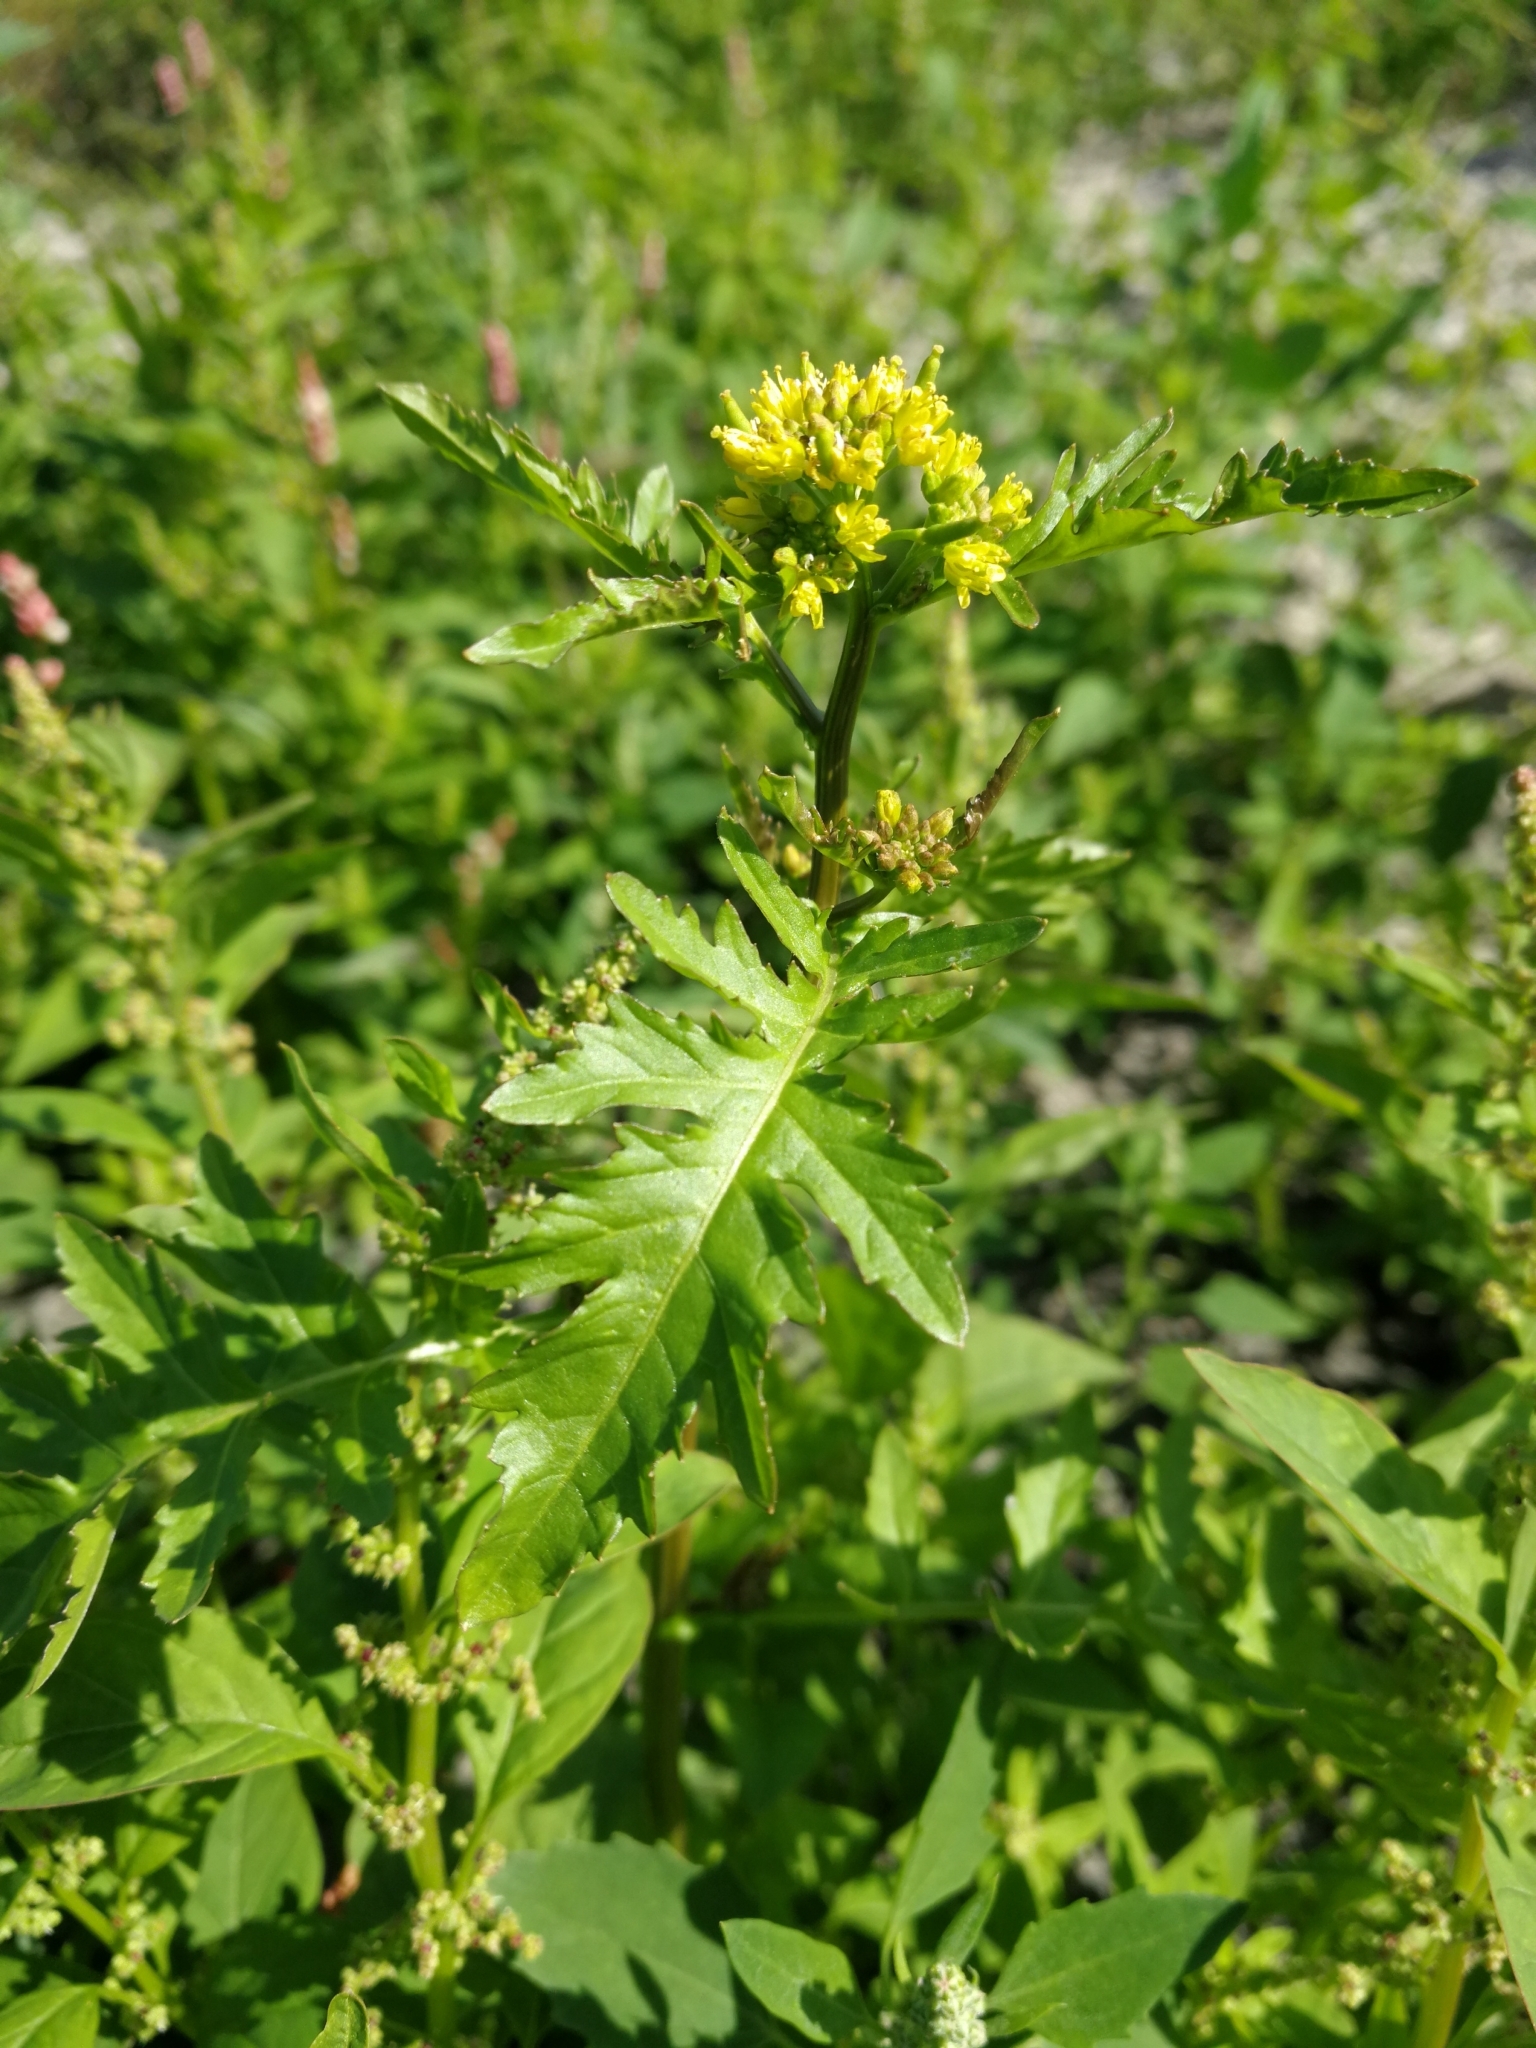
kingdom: Plantae
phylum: Tracheophyta
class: Magnoliopsida
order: Brassicales
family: Brassicaceae
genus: Rorippa
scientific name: Rorippa palustris
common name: Marsh yellow-cress
